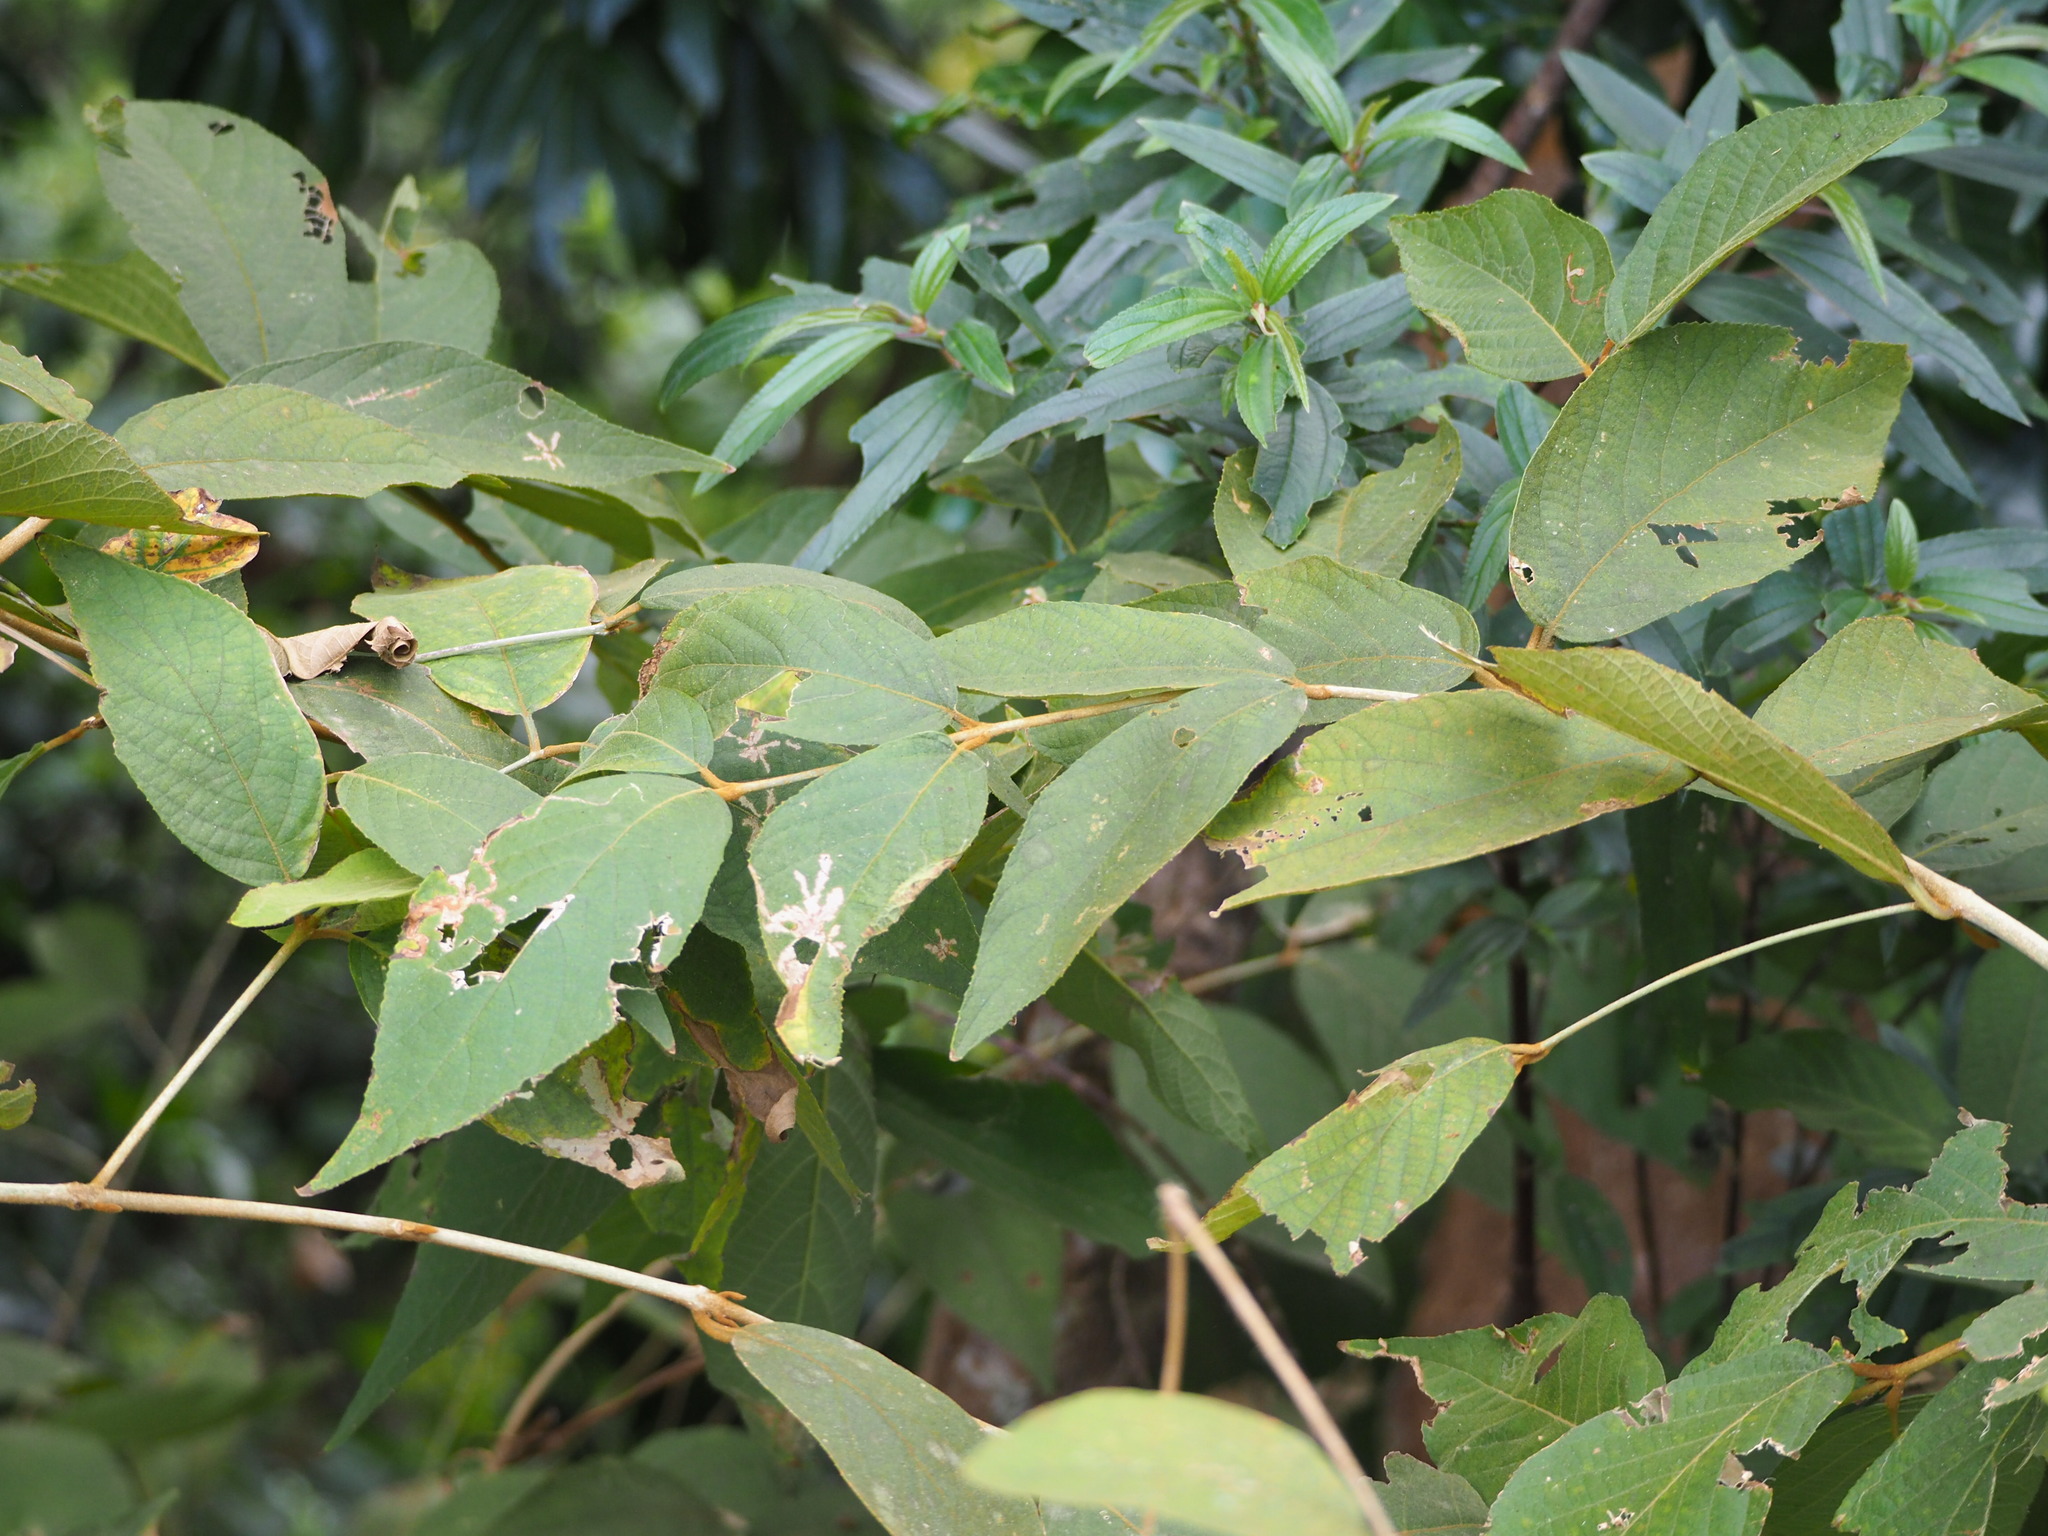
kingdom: Plantae
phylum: Tracheophyta
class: Magnoliopsida
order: Lamiales
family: Lamiaceae
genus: Callicarpa
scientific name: Callicarpa pedunculata
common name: Velvetleaf
